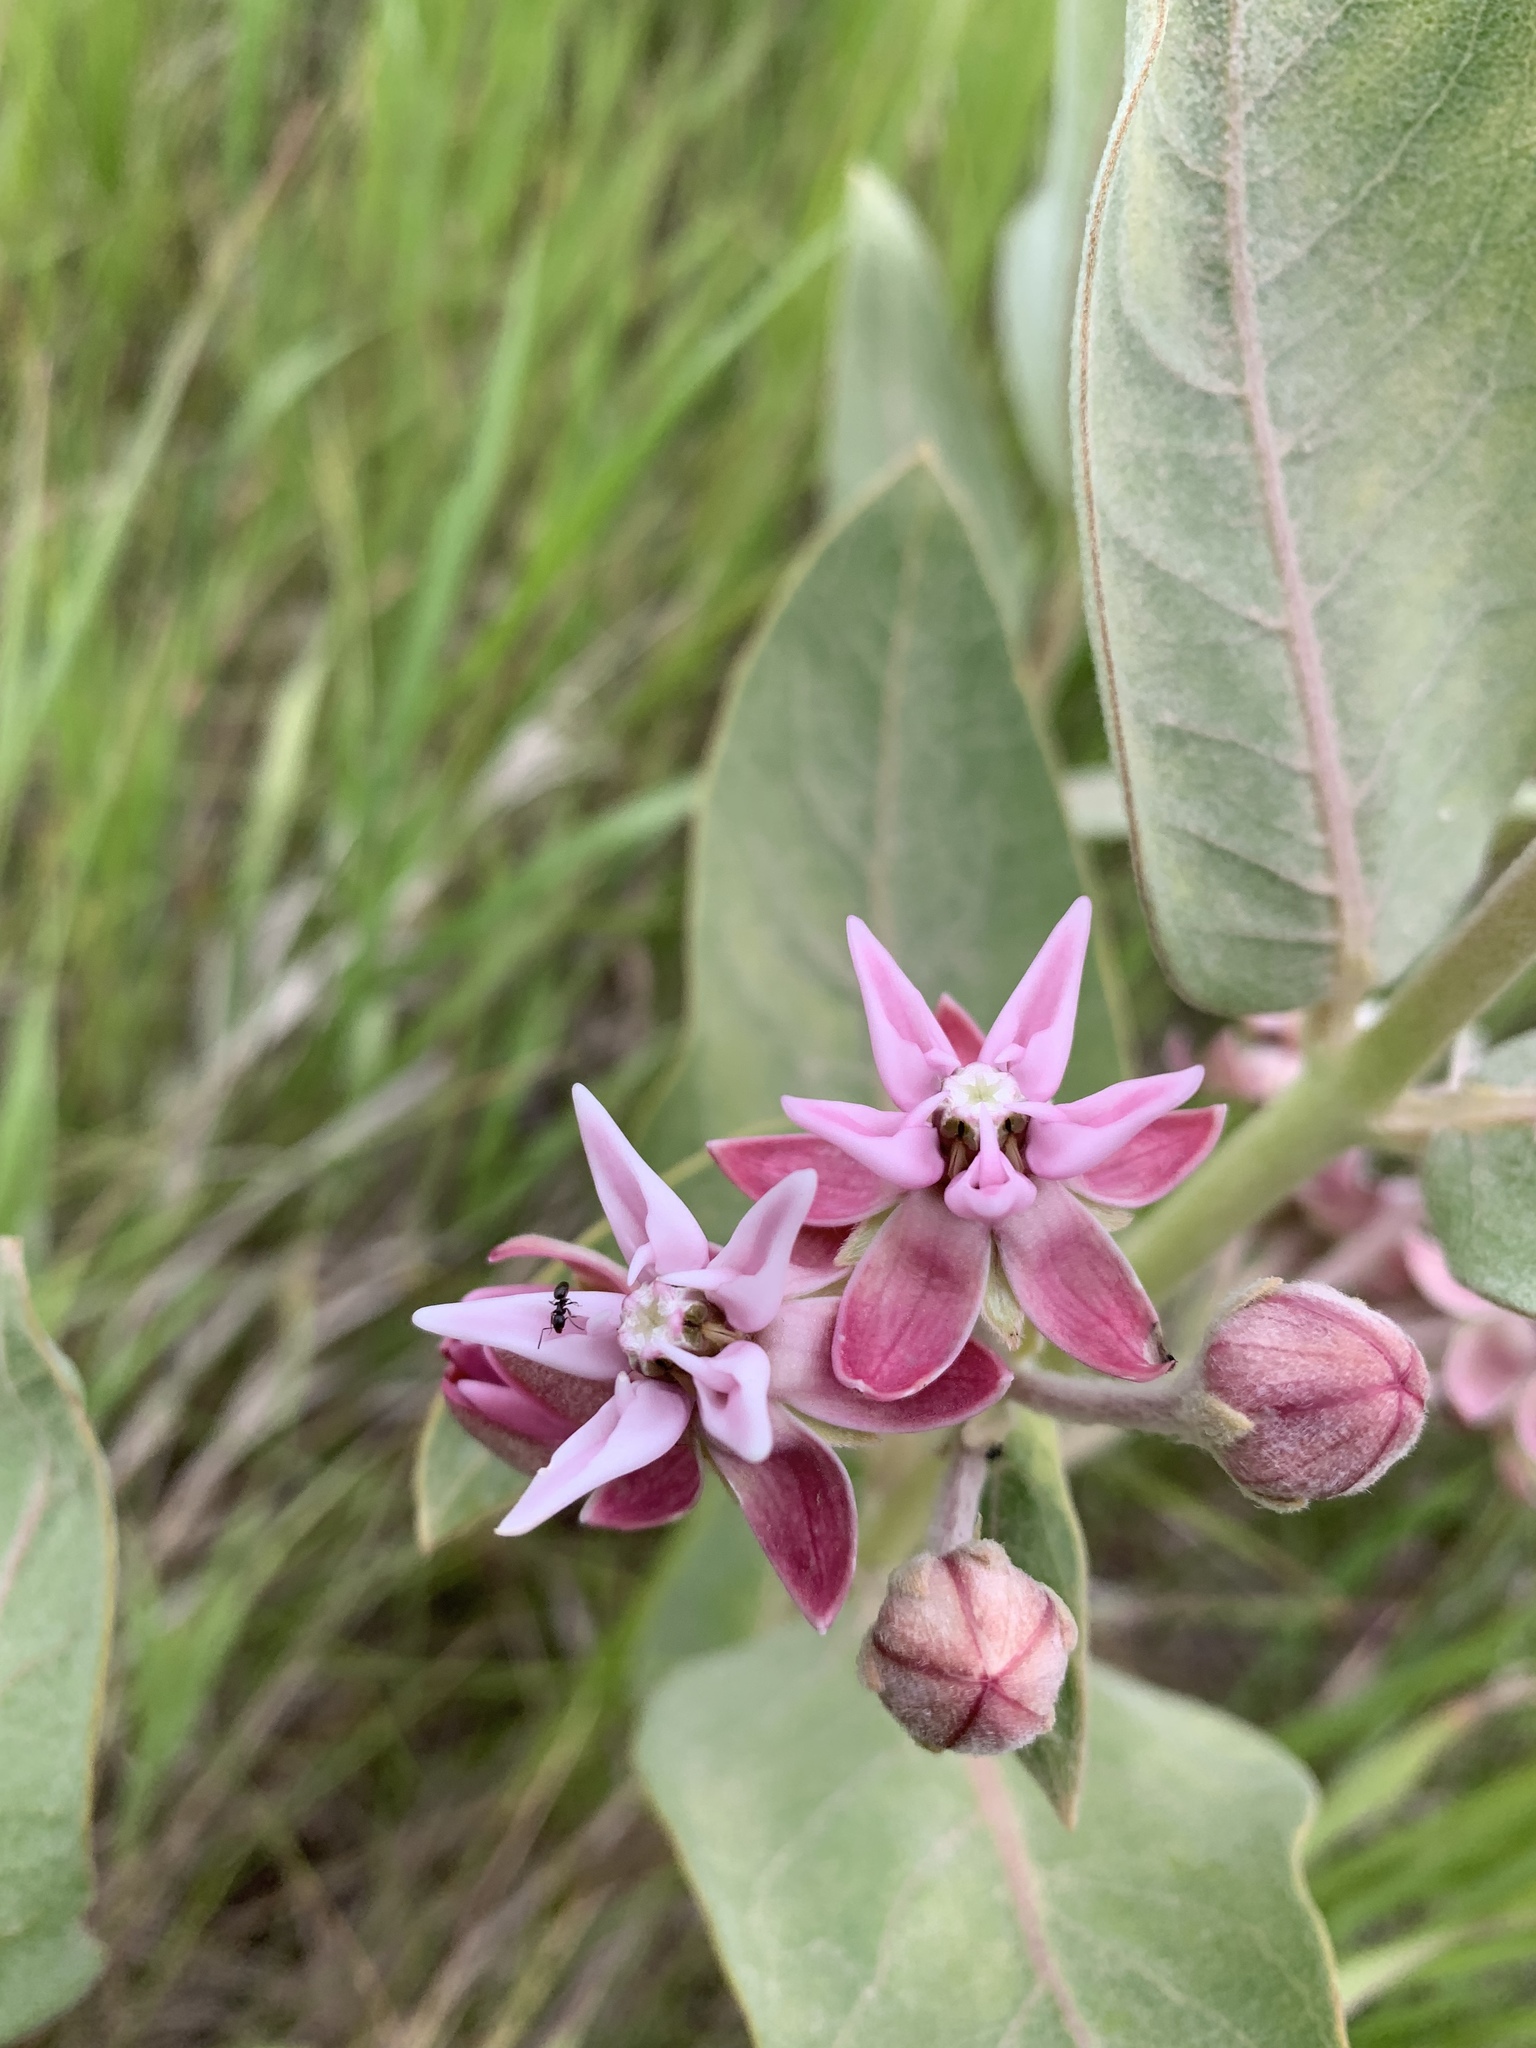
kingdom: Plantae
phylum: Tracheophyta
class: Magnoliopsida
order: Gentianales
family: Apocynaceae
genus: Asclepias
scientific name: Asclepias speciosa
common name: Showy milkweed
